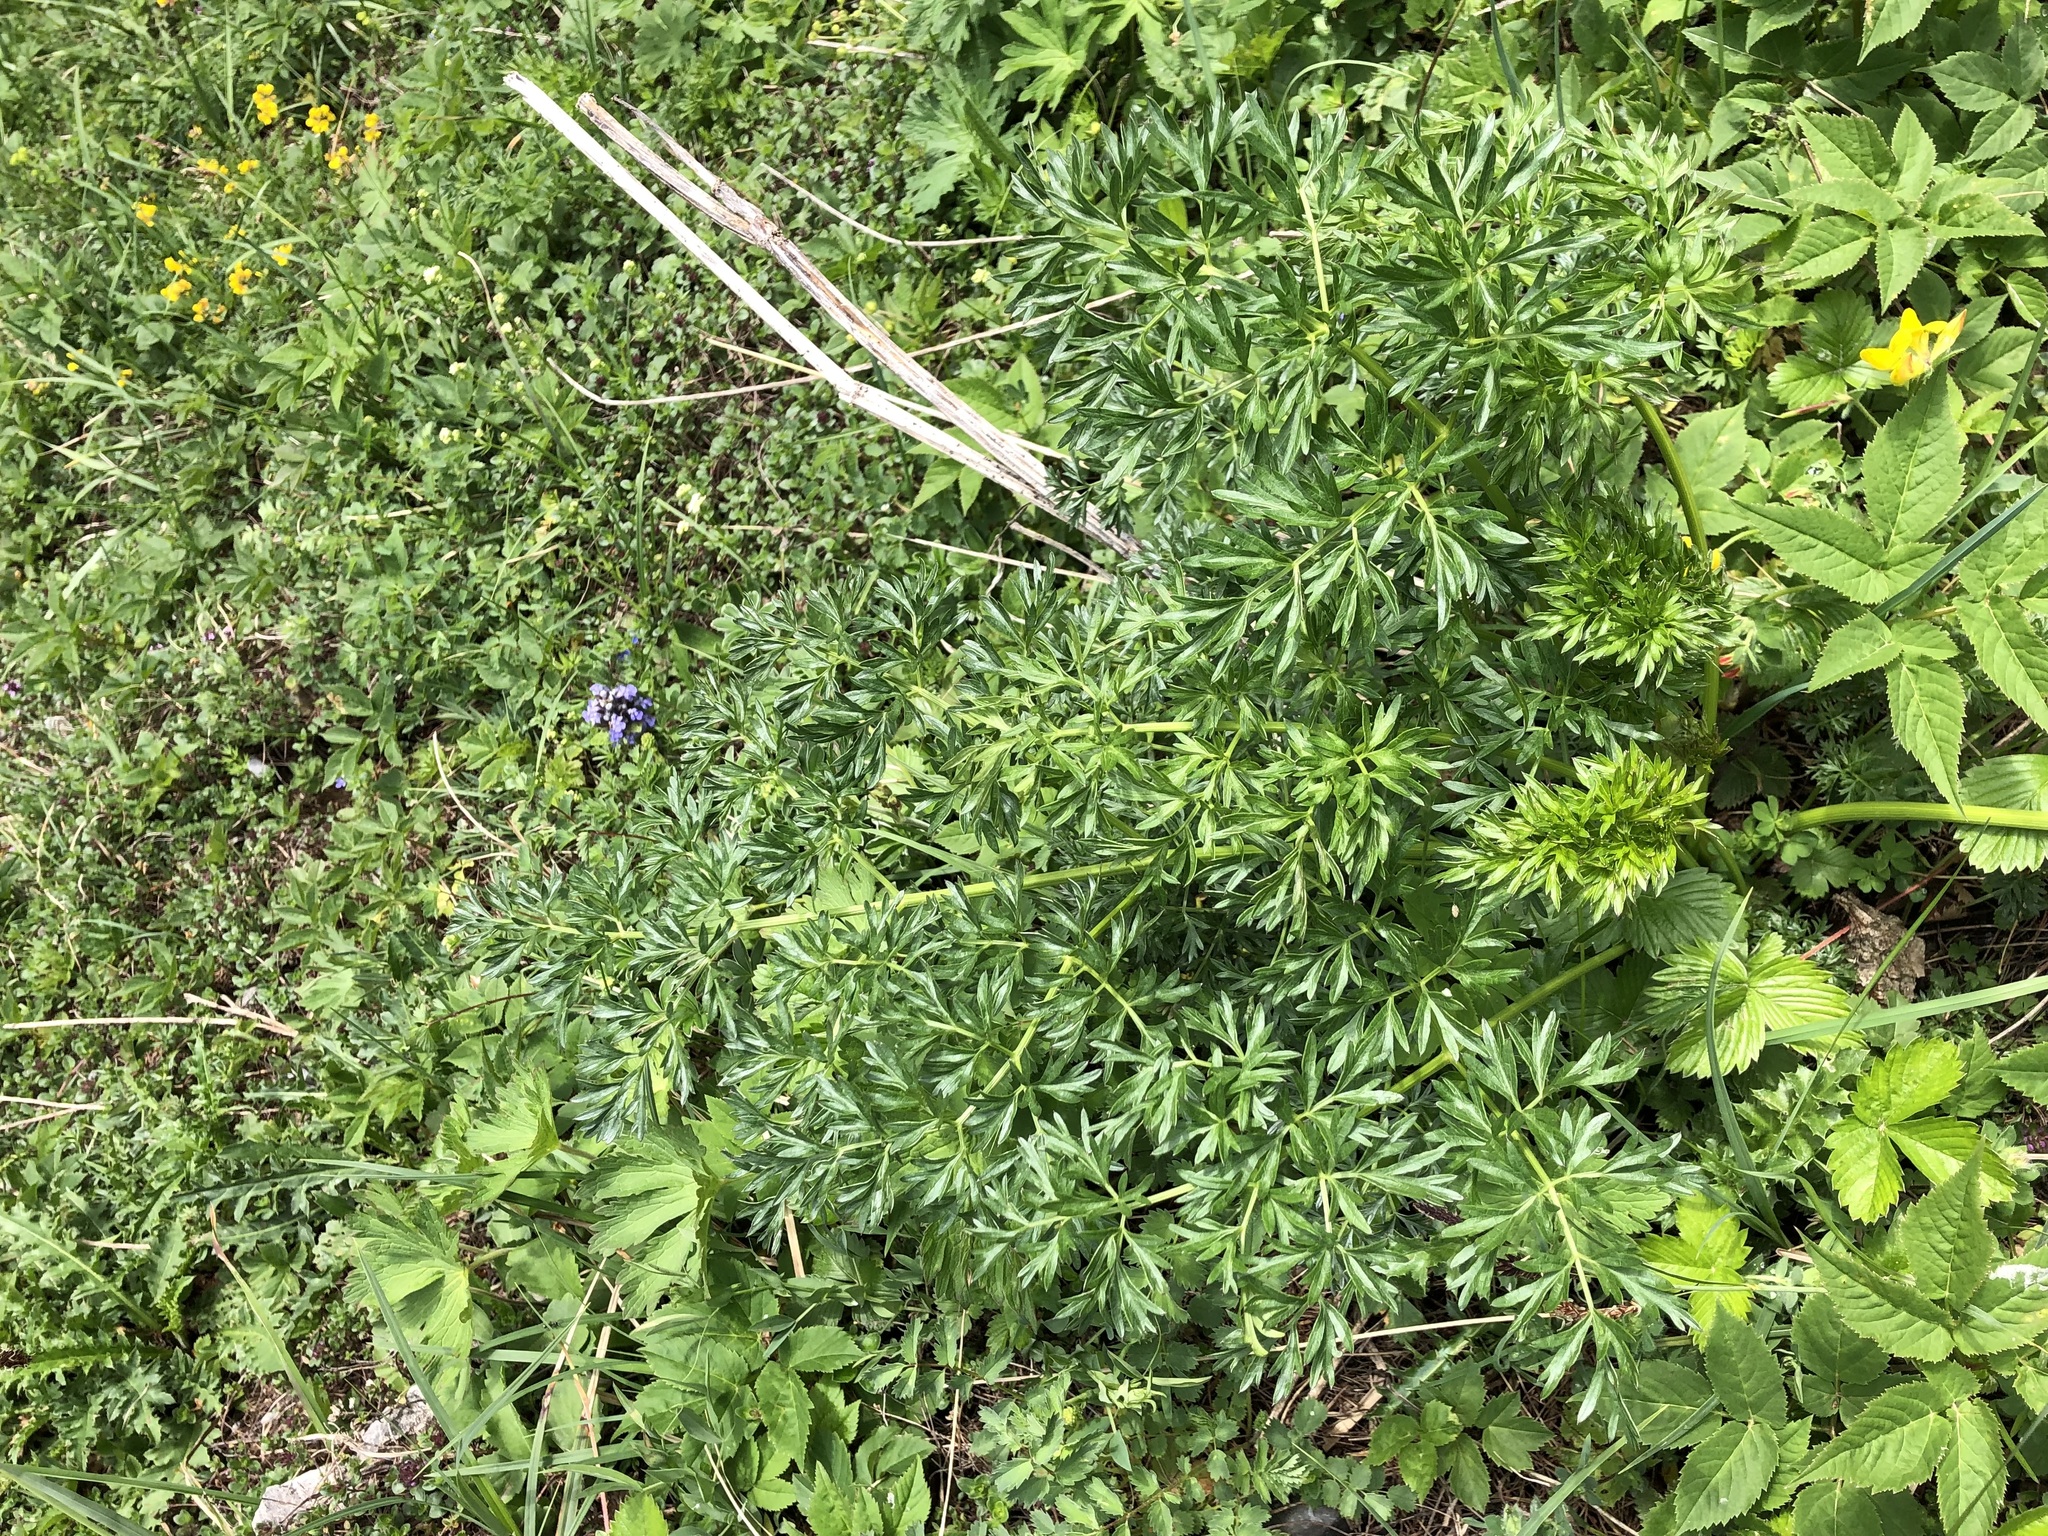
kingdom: Plantae
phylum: Tracheophyta
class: Magnoliopsida
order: Apiales
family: Apiaceae
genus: Peucedanum
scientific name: Peucedanum austriacum
